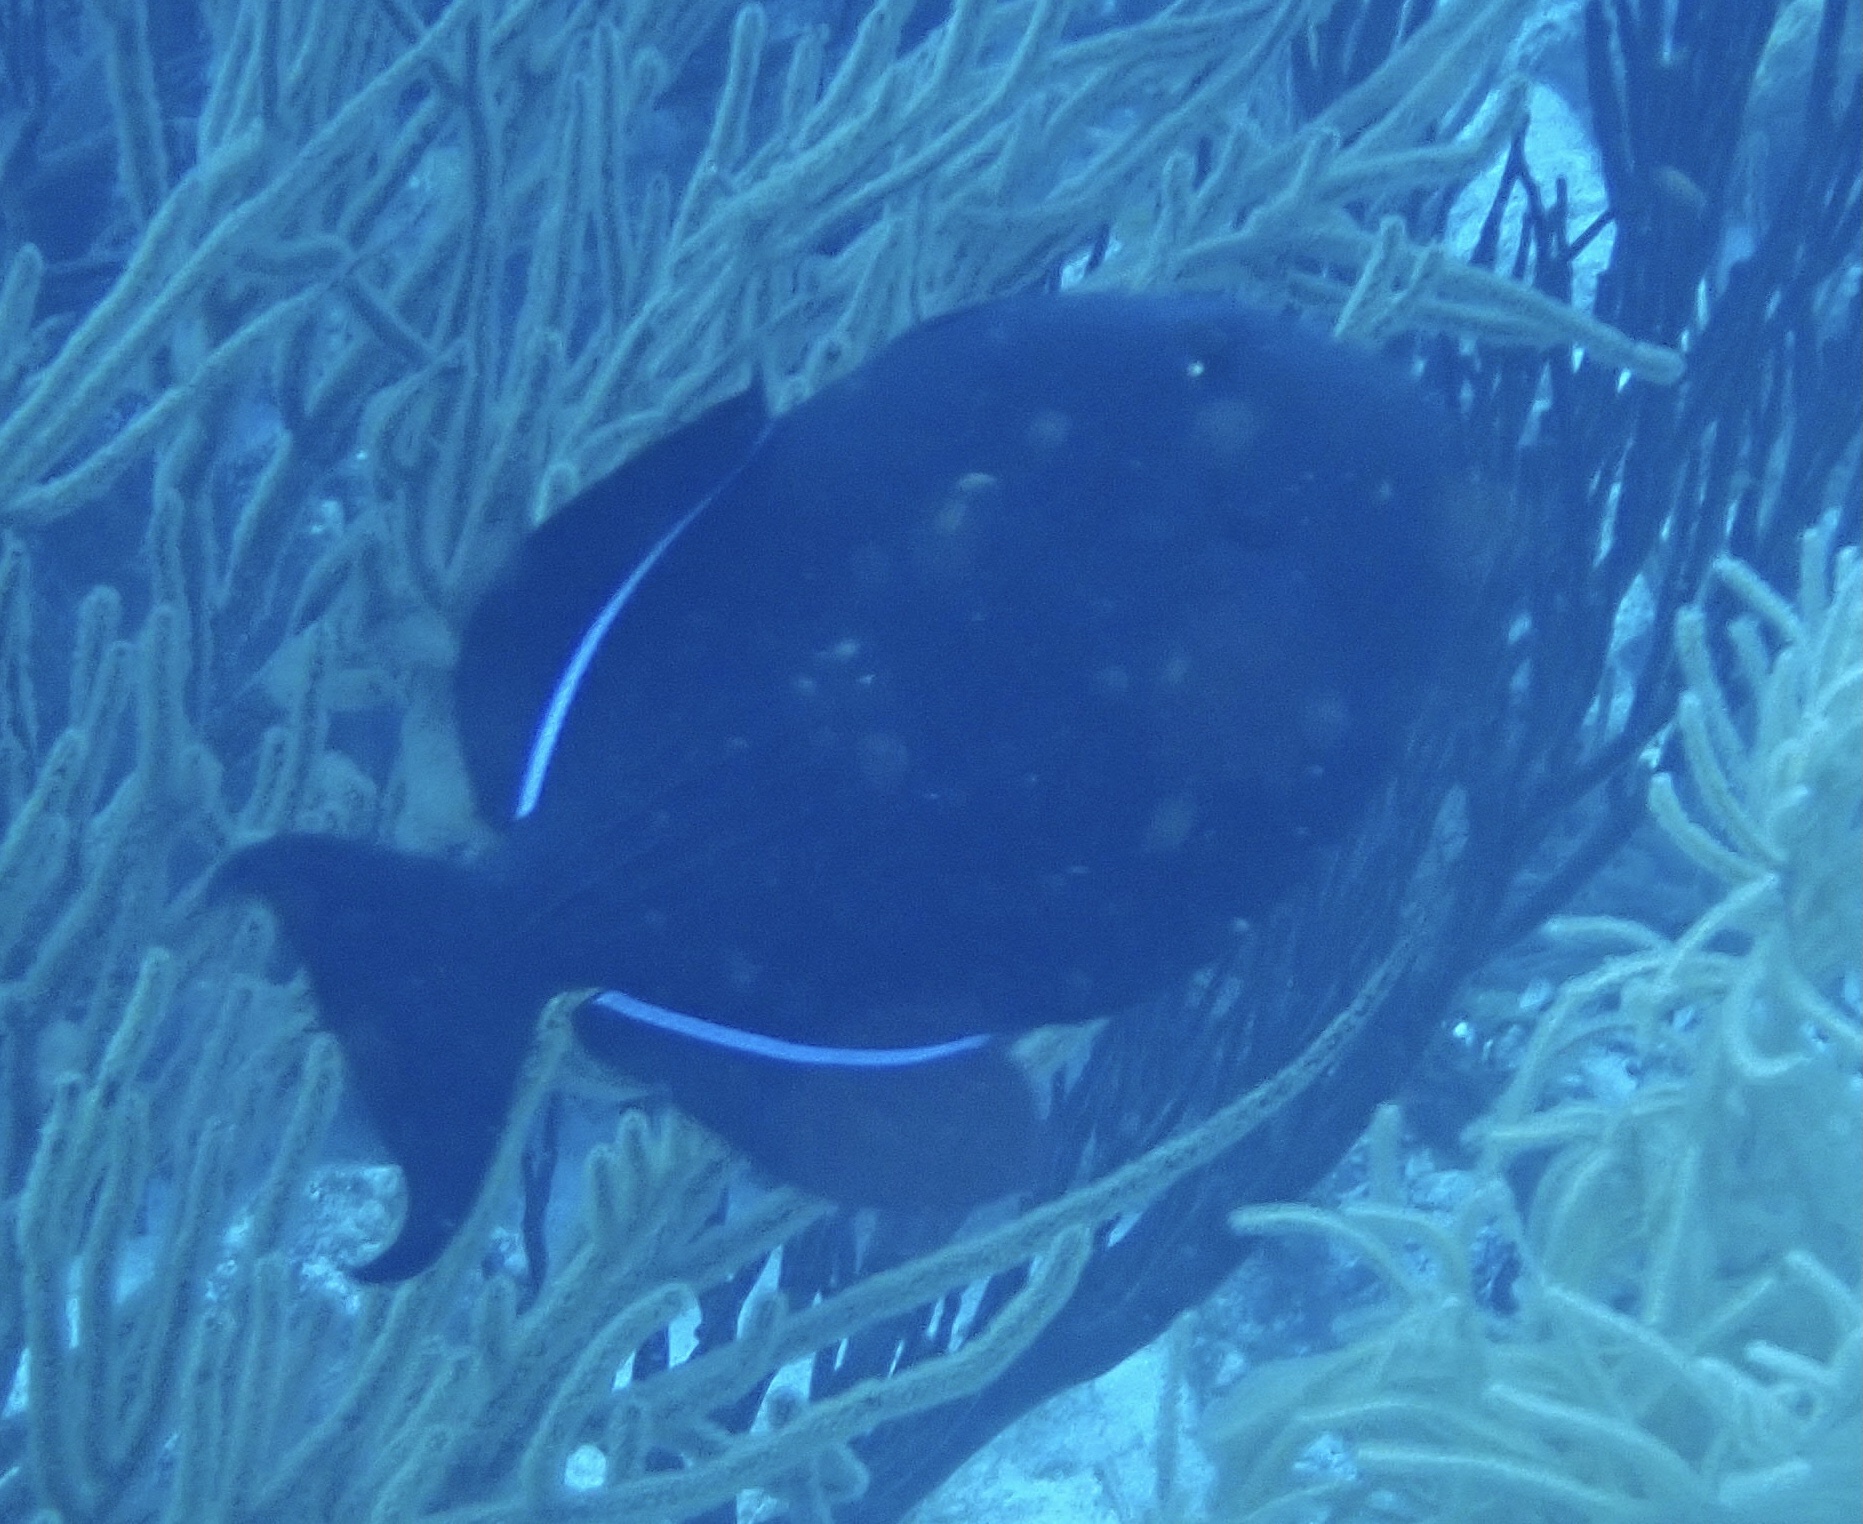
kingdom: Animalia
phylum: Chordata
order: Tetraodontiformes
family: Balistidae
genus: Melichthys
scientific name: Melichthys niger
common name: Black durgon
